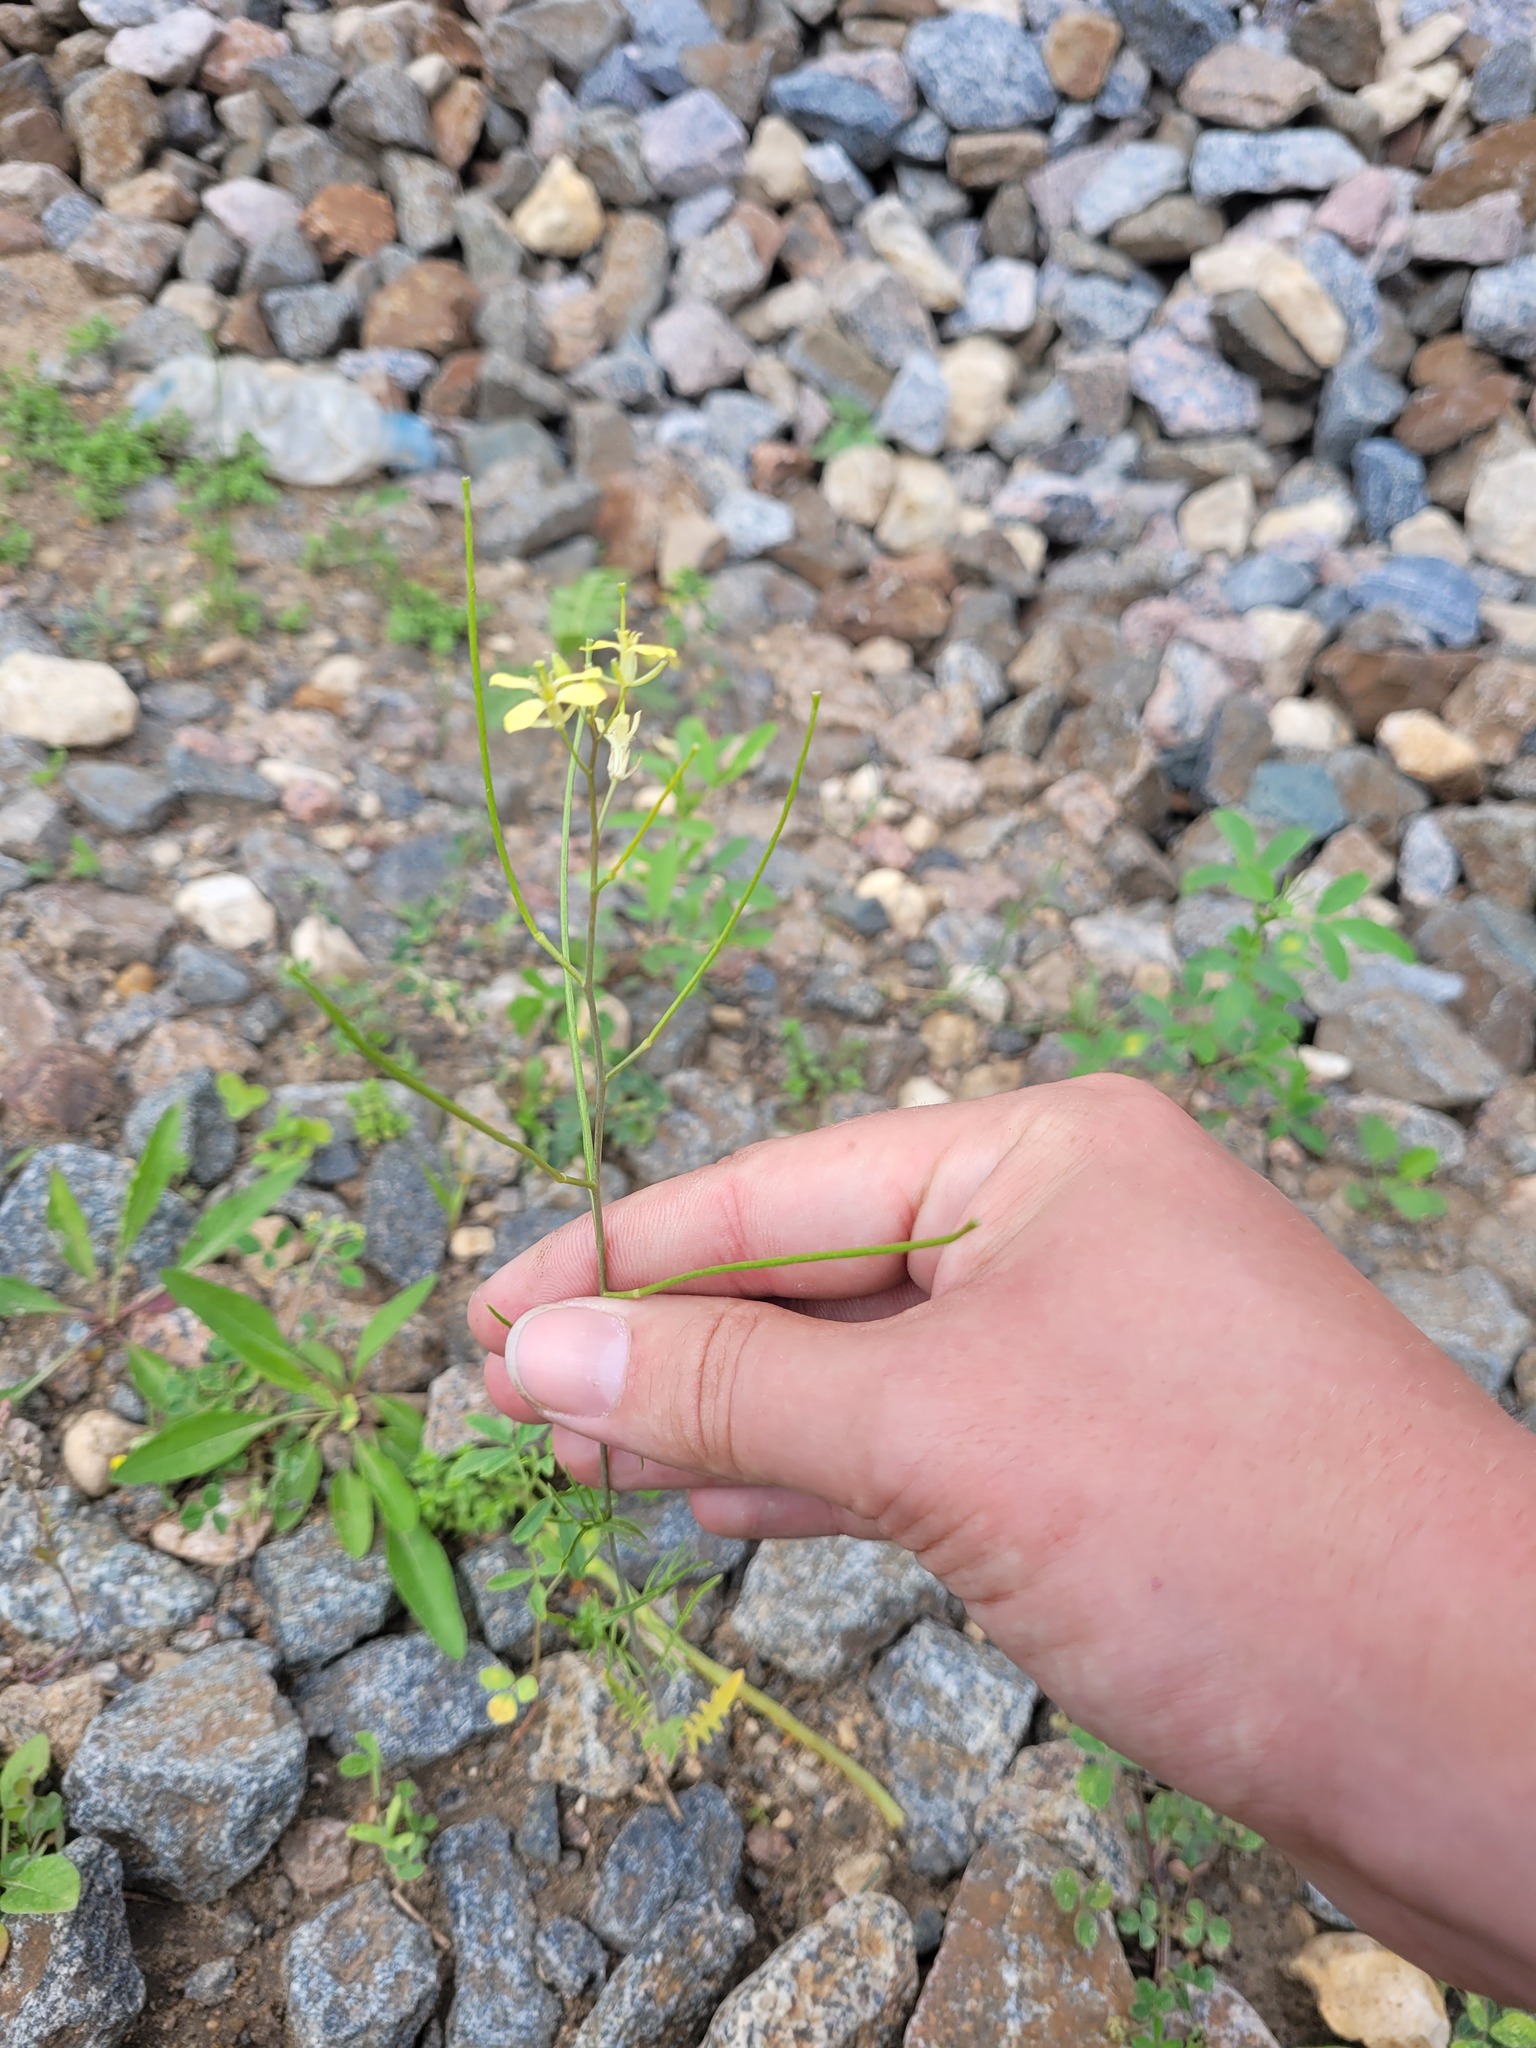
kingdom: Plantae
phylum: Tracheophyta
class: Magnoliopsida
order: Brassicales
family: Brassicaceae
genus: Sisymbrium
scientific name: Sisymbrium altissimum
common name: Tall rocket
